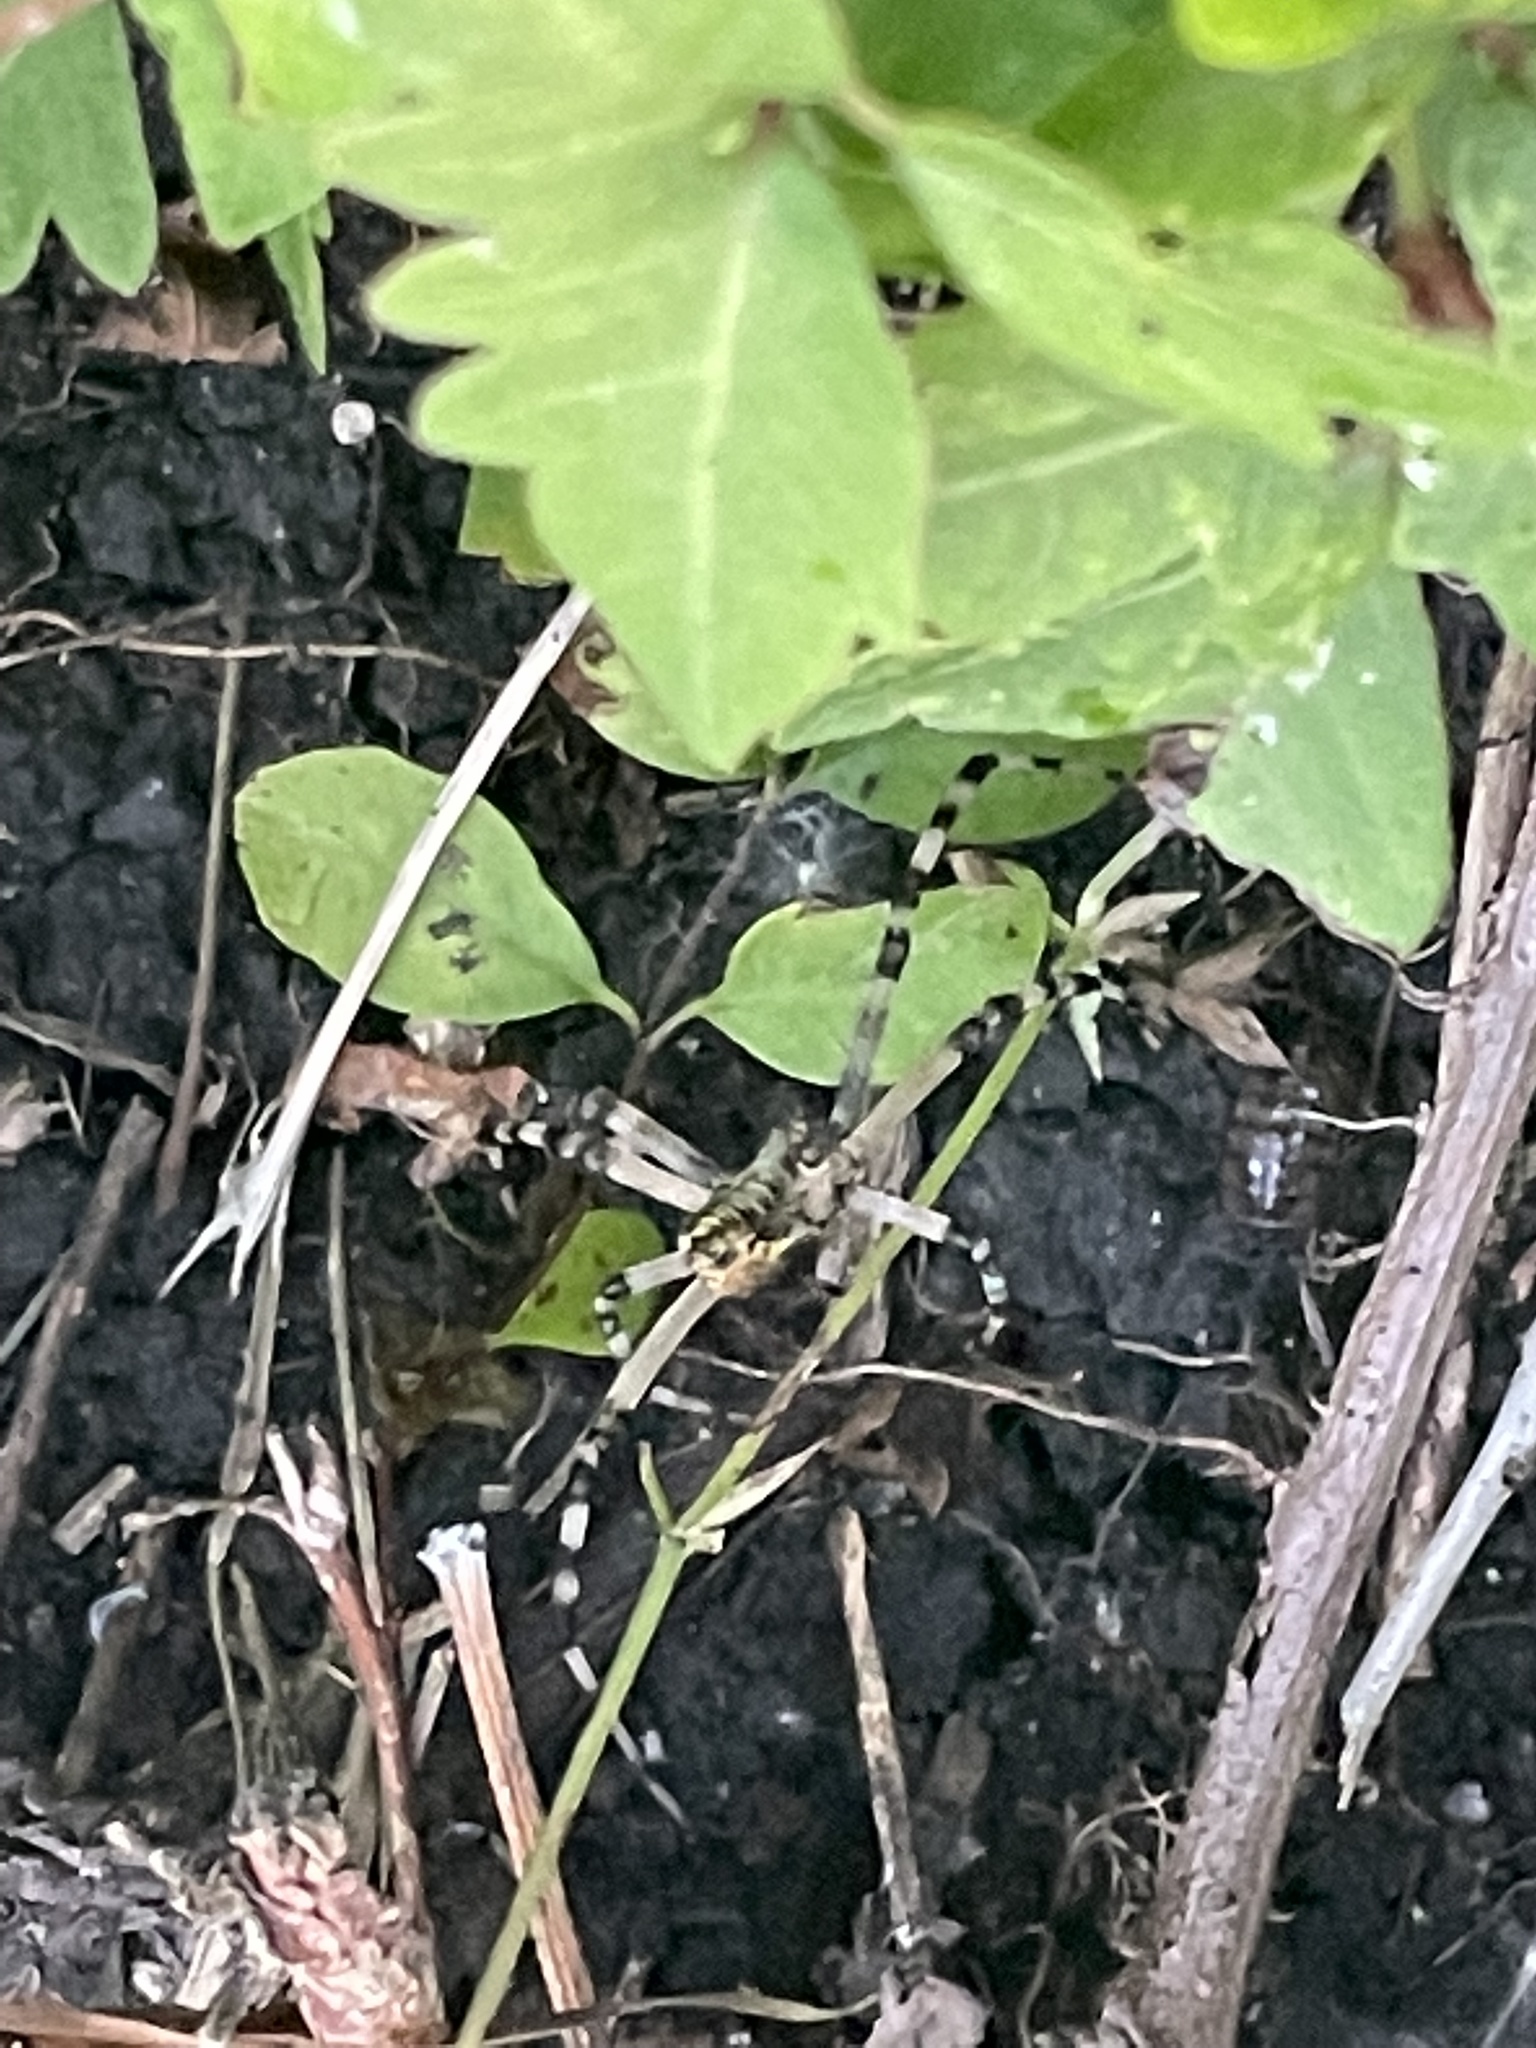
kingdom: Animalia
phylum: Arthropoda
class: Arachnida
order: Araneae
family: Araneidae
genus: Argiope
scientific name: Argiope aurantia
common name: Orb weavers
